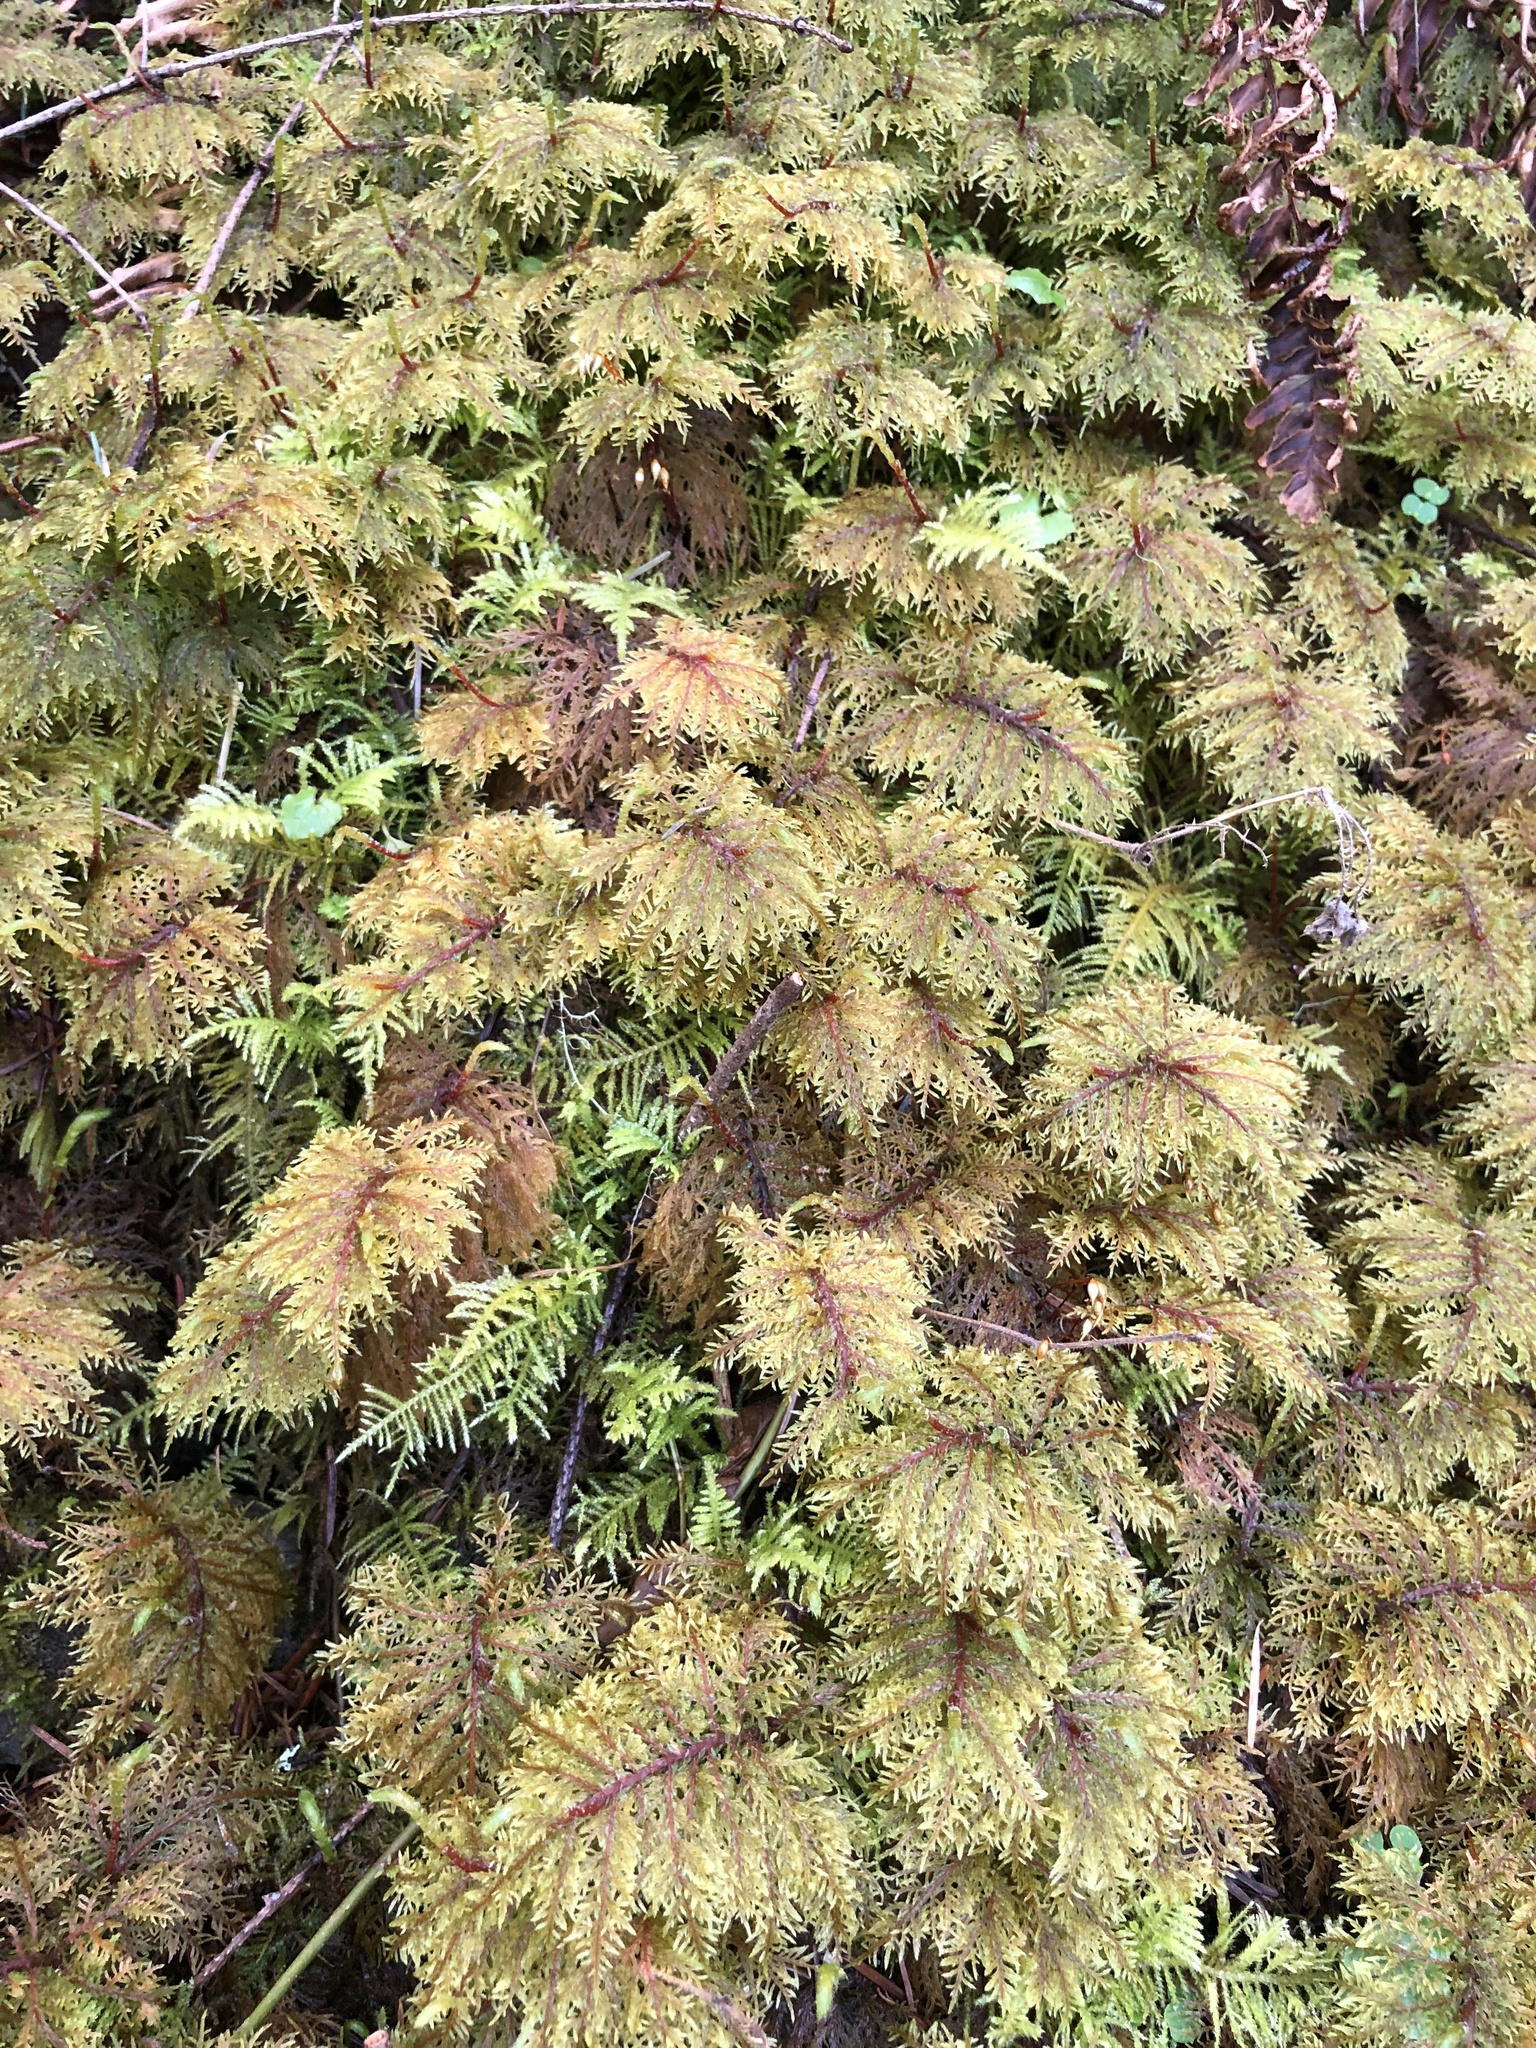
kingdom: Plantae
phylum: Bryophyta
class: Bryopsida
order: Hypnales
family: Hylocomiaceae
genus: Hylocomium
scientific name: Hylocomium splendens
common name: Stairstep moss
